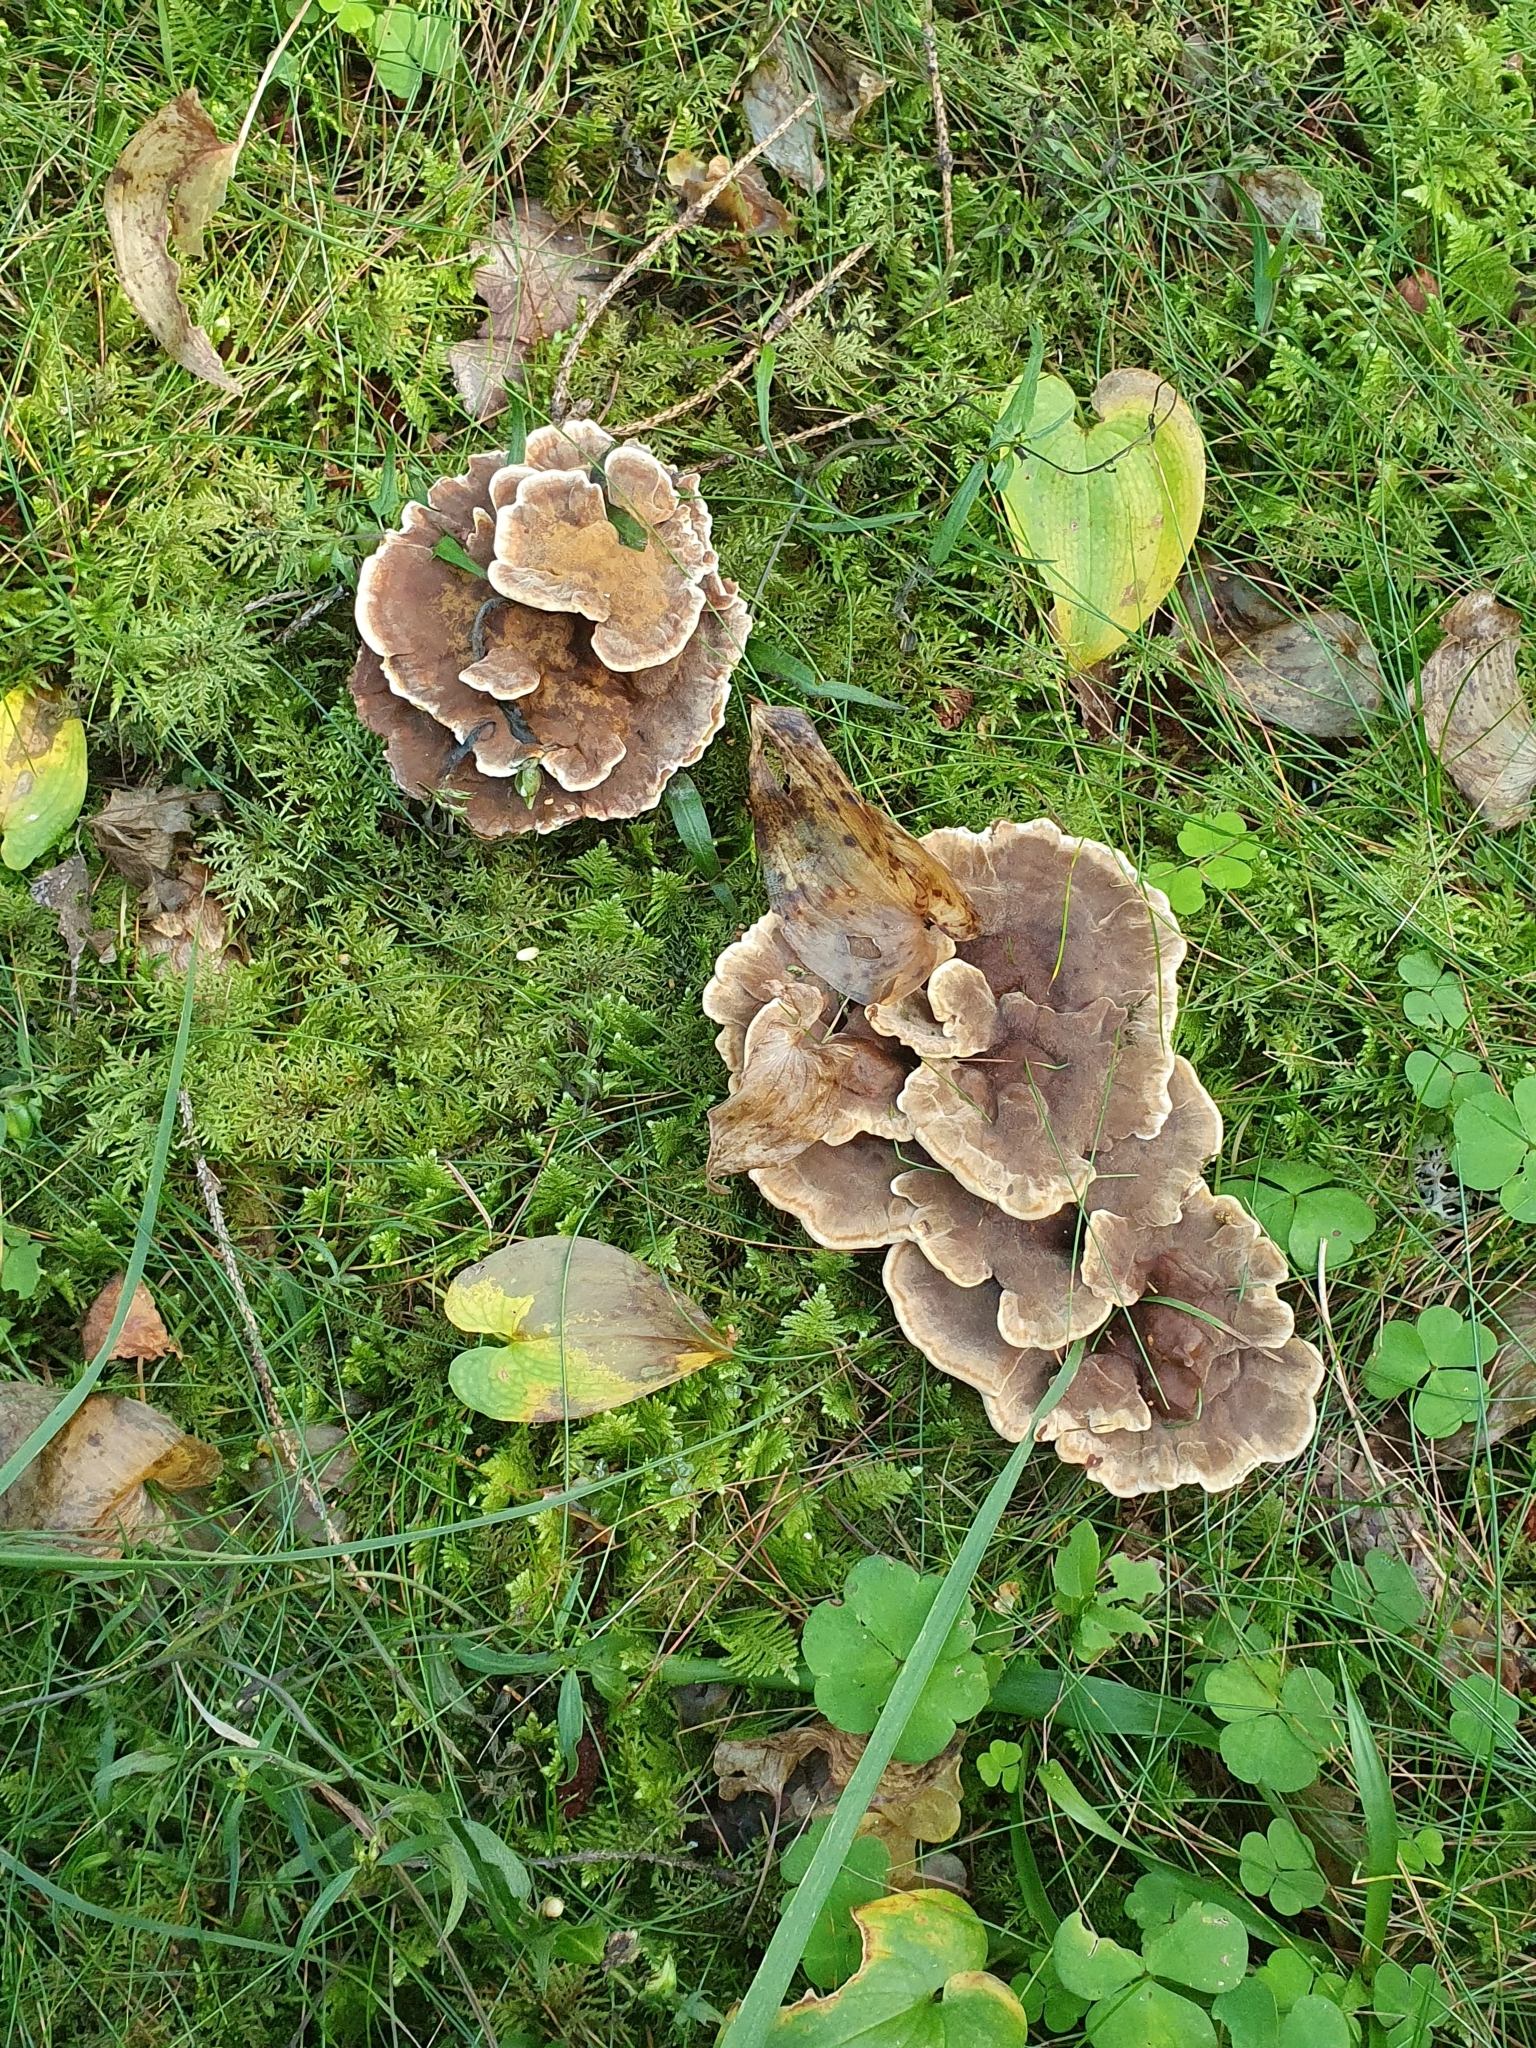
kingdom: Fungi
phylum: Basidiomycota
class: Agaricomycetes
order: Hymenochaetales
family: Hymenochaetaceae
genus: Onnia
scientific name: Onnia tomentosa
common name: Velvet rosette
